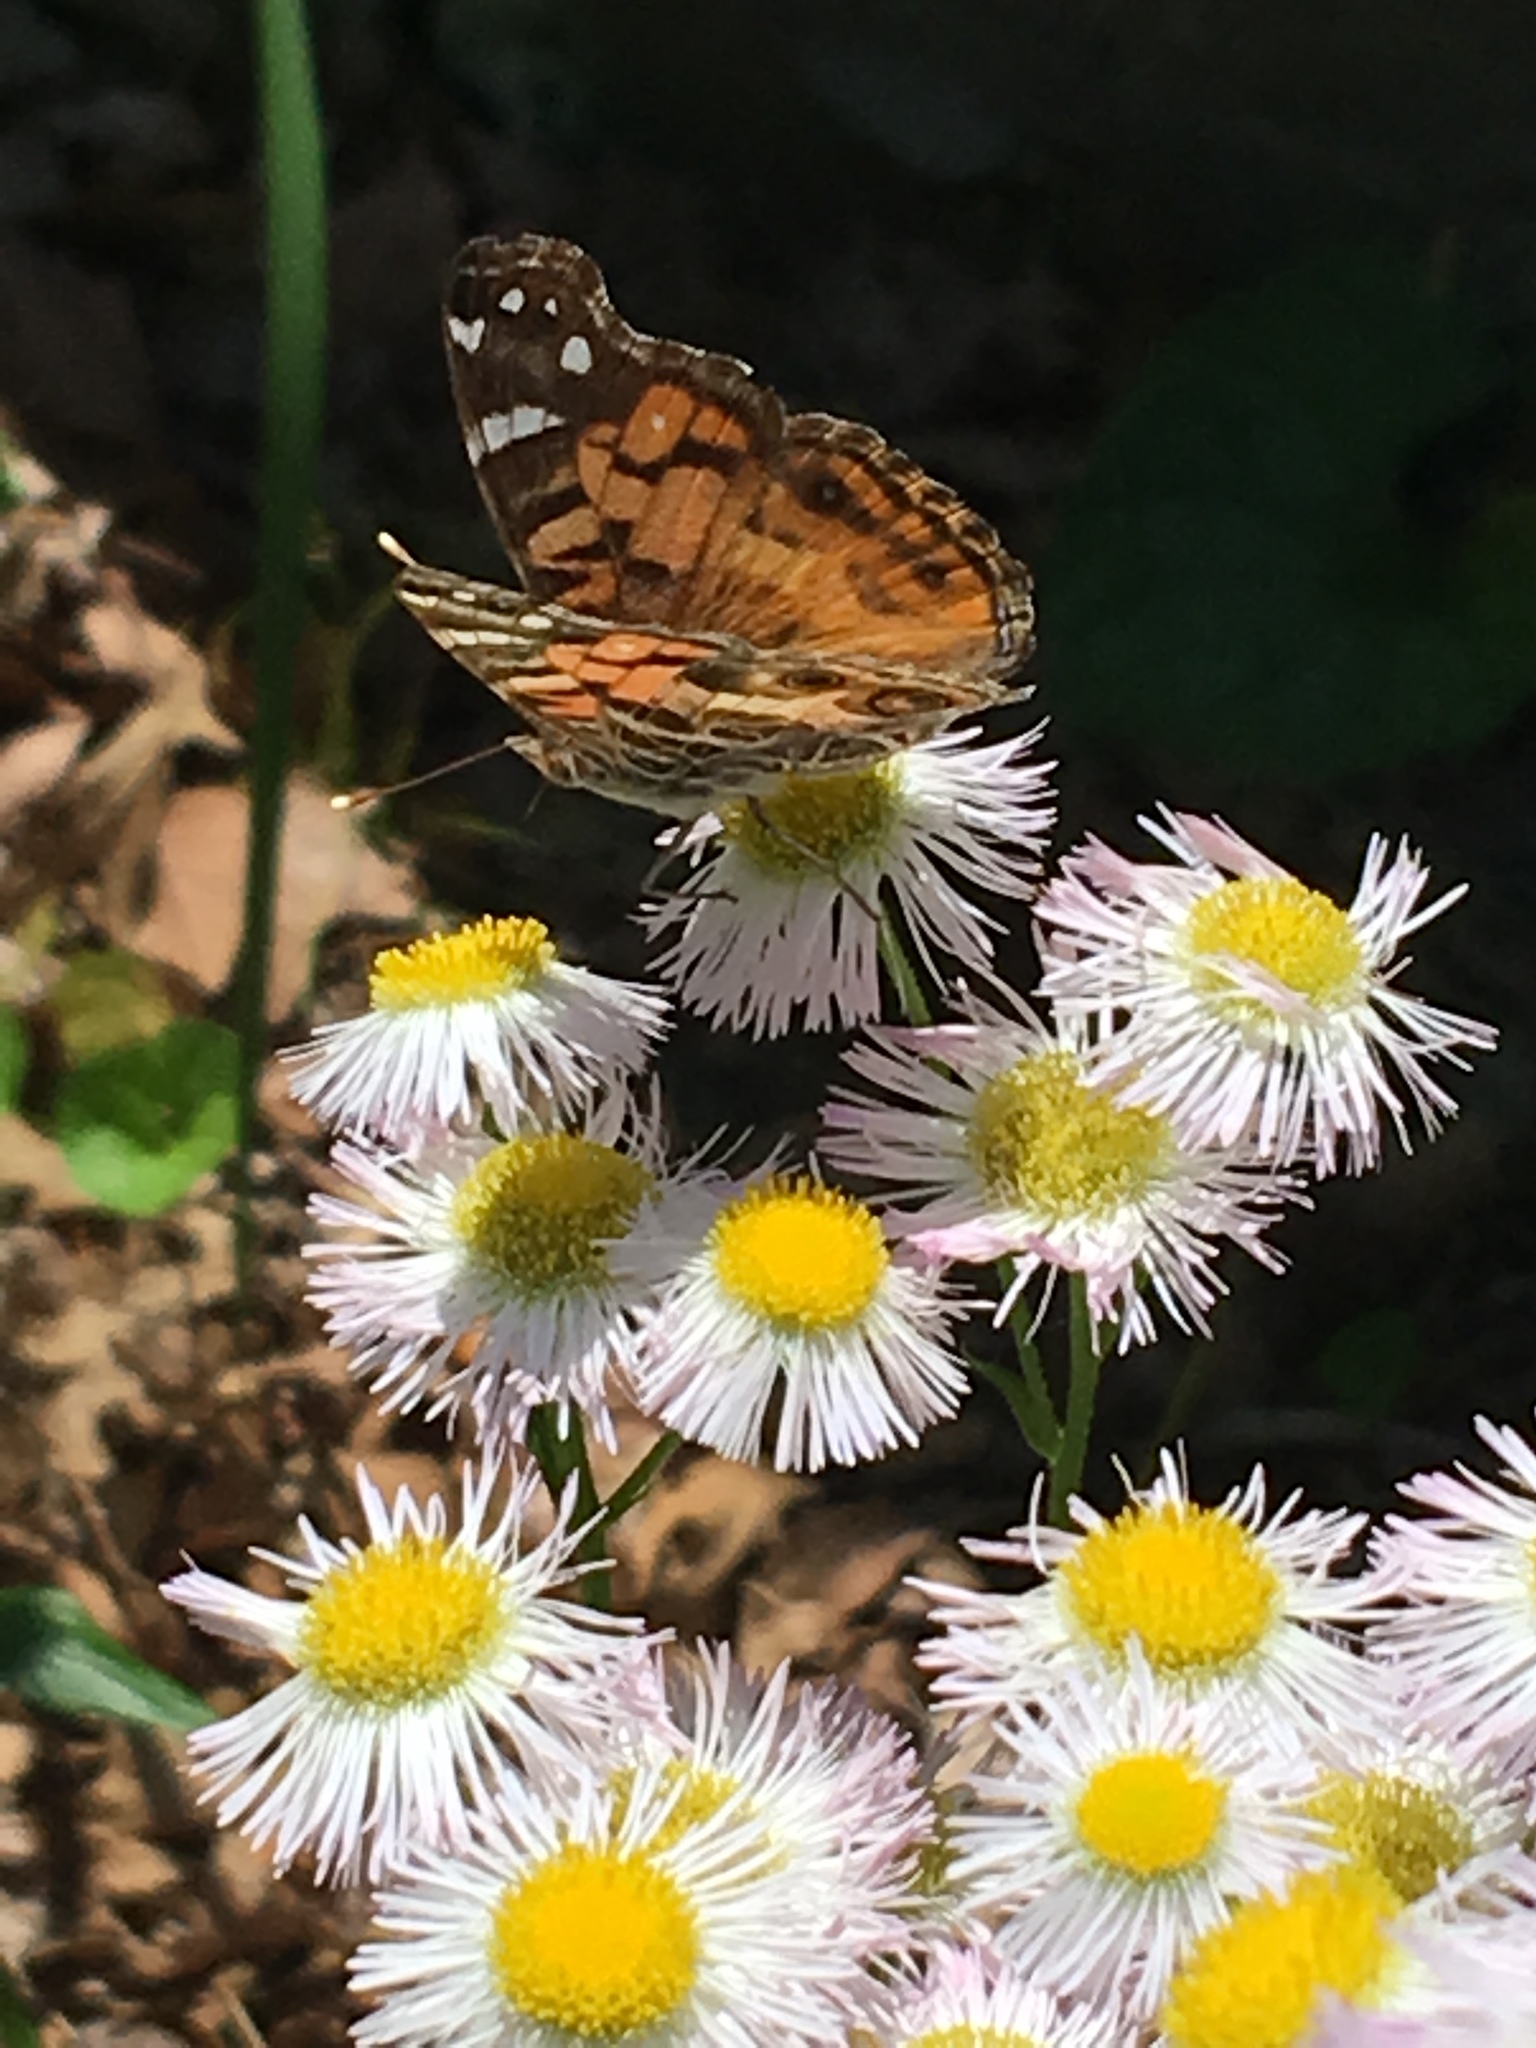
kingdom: Animalia
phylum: Arthropoda
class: Insecta
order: Lepidoptera
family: Nymphalidae
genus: Vanessa
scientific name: Vanessa virginiensis
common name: American lady
